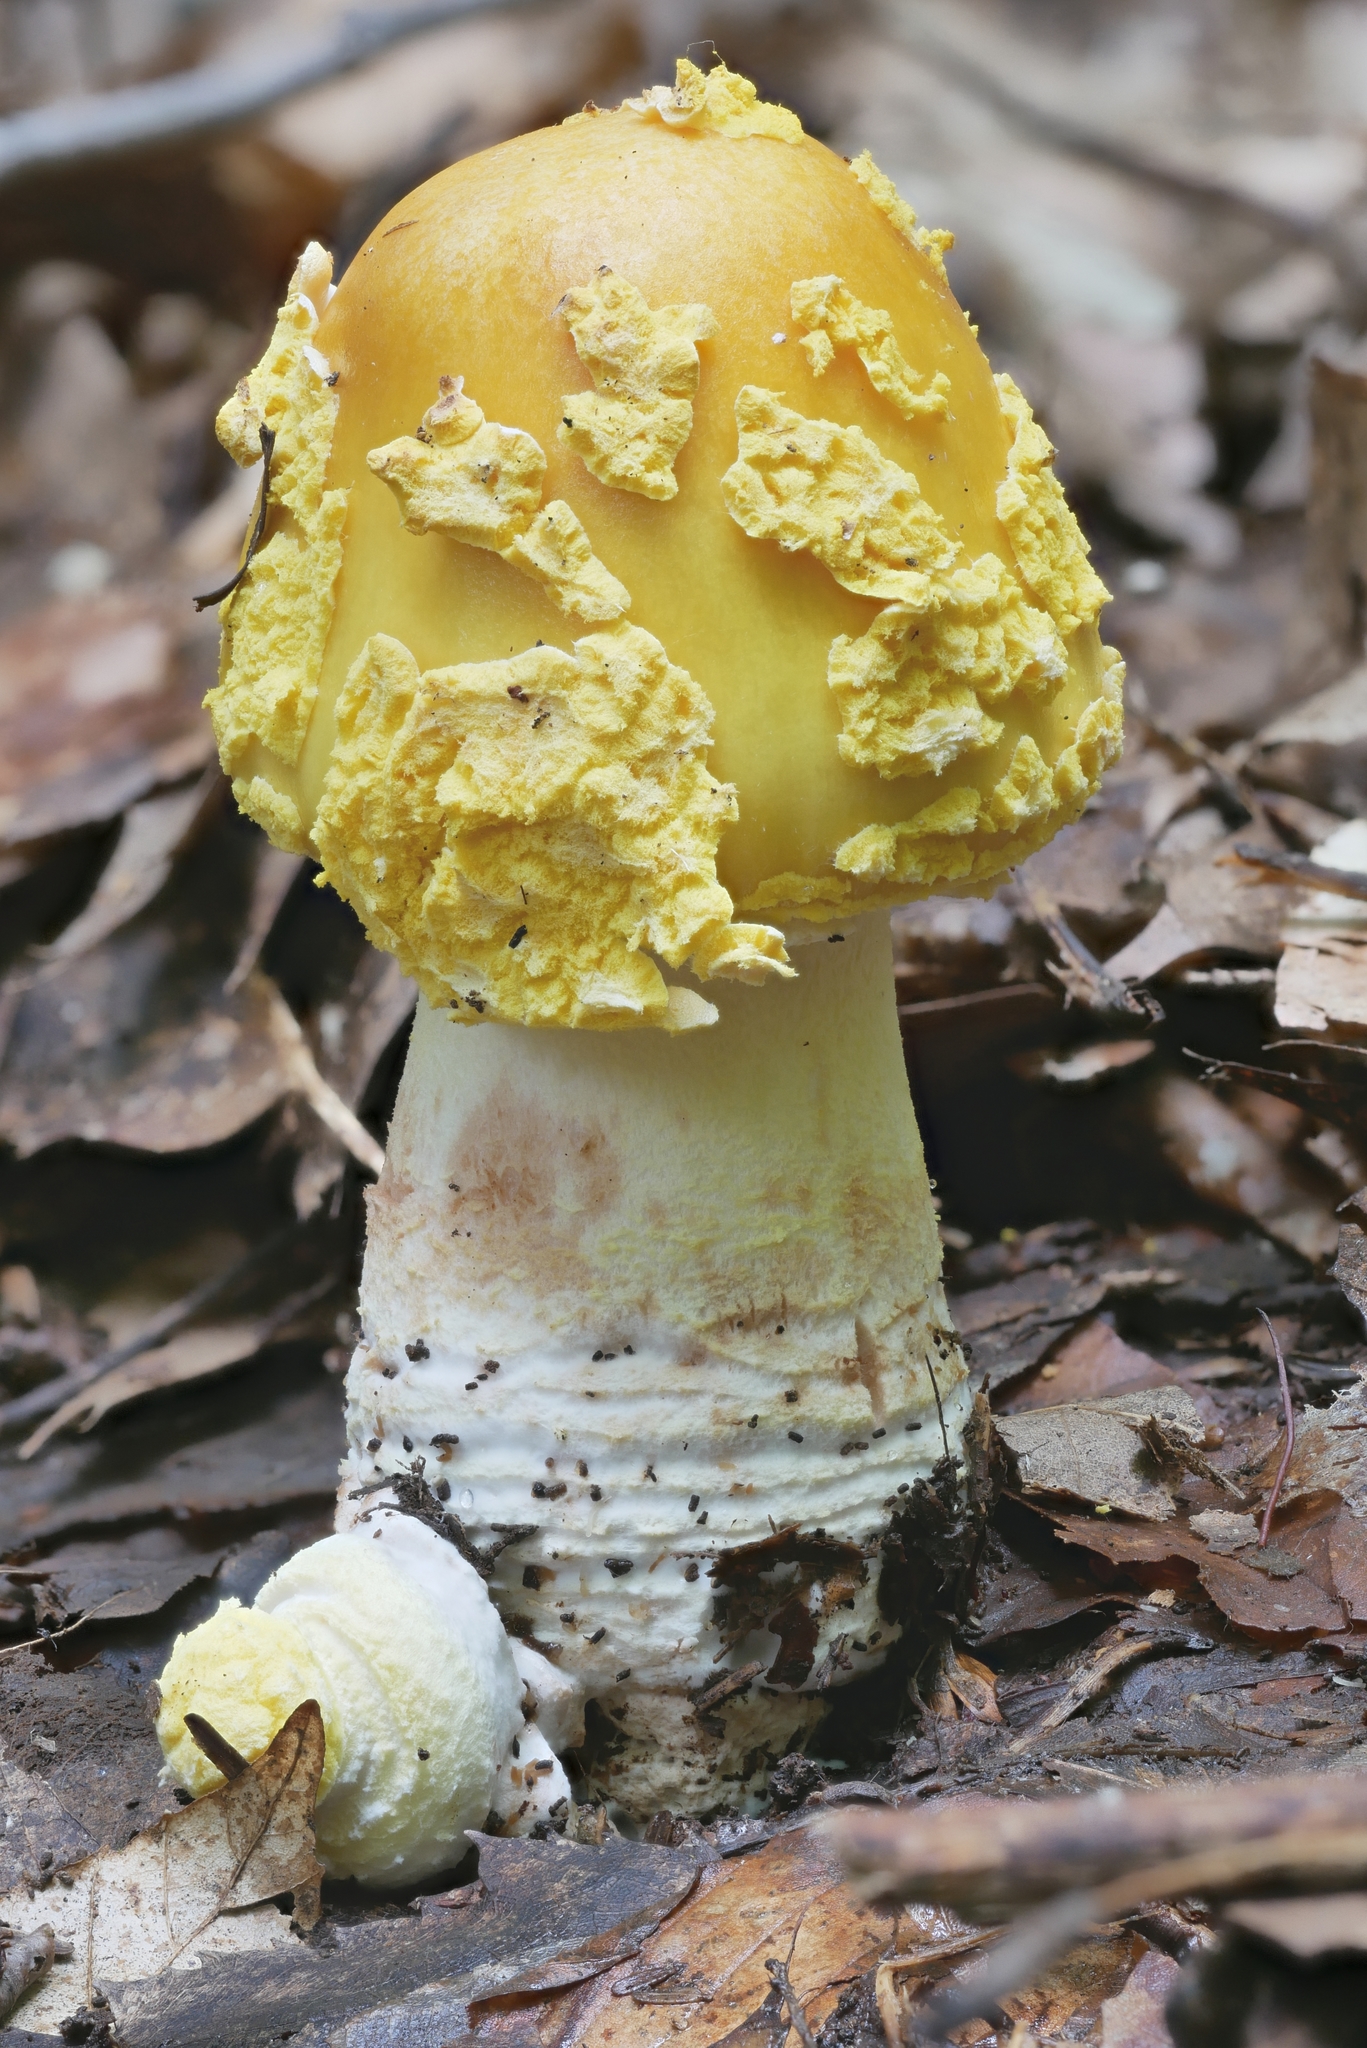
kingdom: Fungi
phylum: Basidiomycota
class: Agaricomycetes
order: Agaricales
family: Amanitaceae
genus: Amanita
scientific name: Amanita flavorubens
